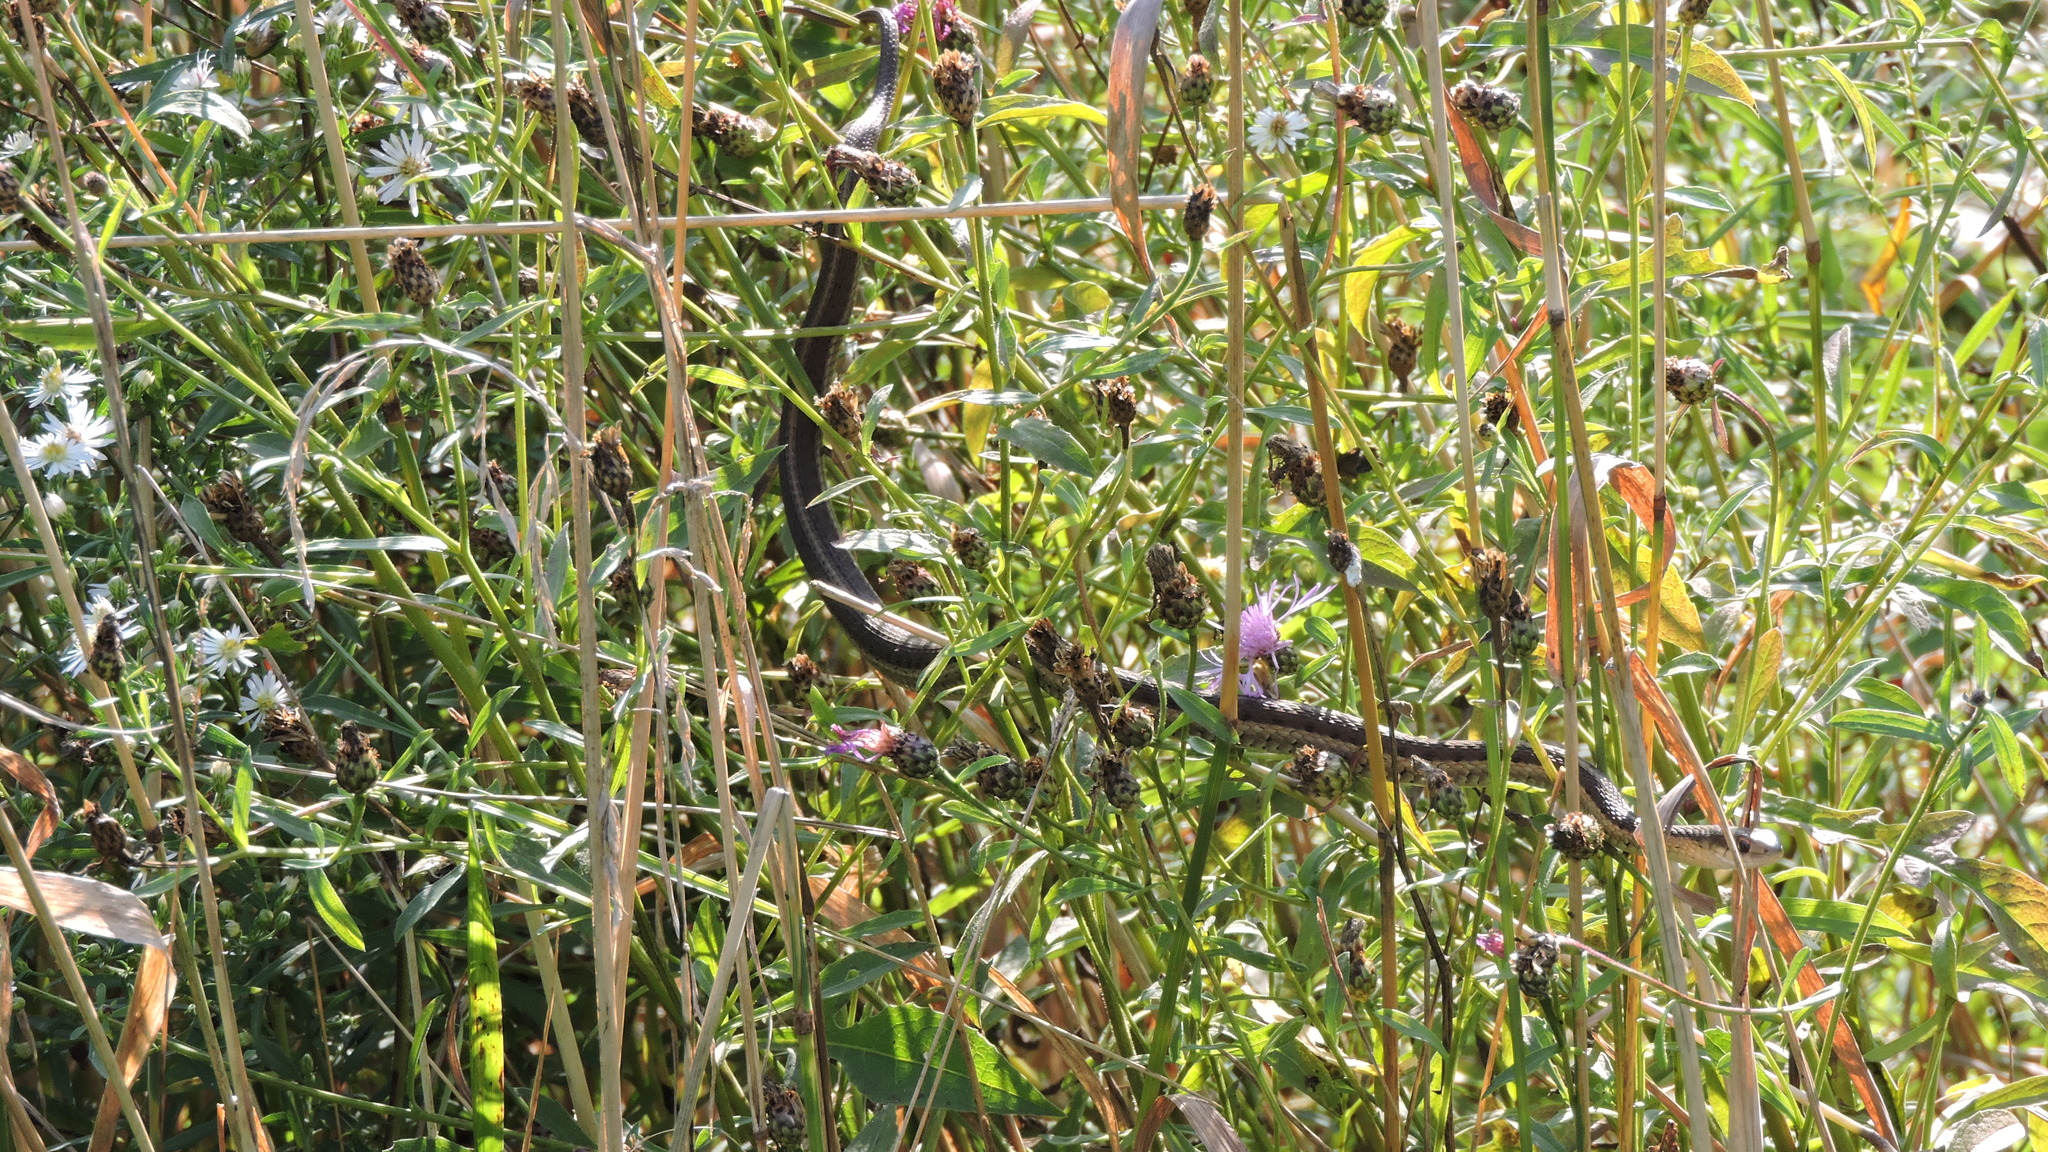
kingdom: Animalia
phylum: Chordata
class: Squamata
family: Colubridae
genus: Thamnophis
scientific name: Thamnophis sirtalis
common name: Common garter snake
